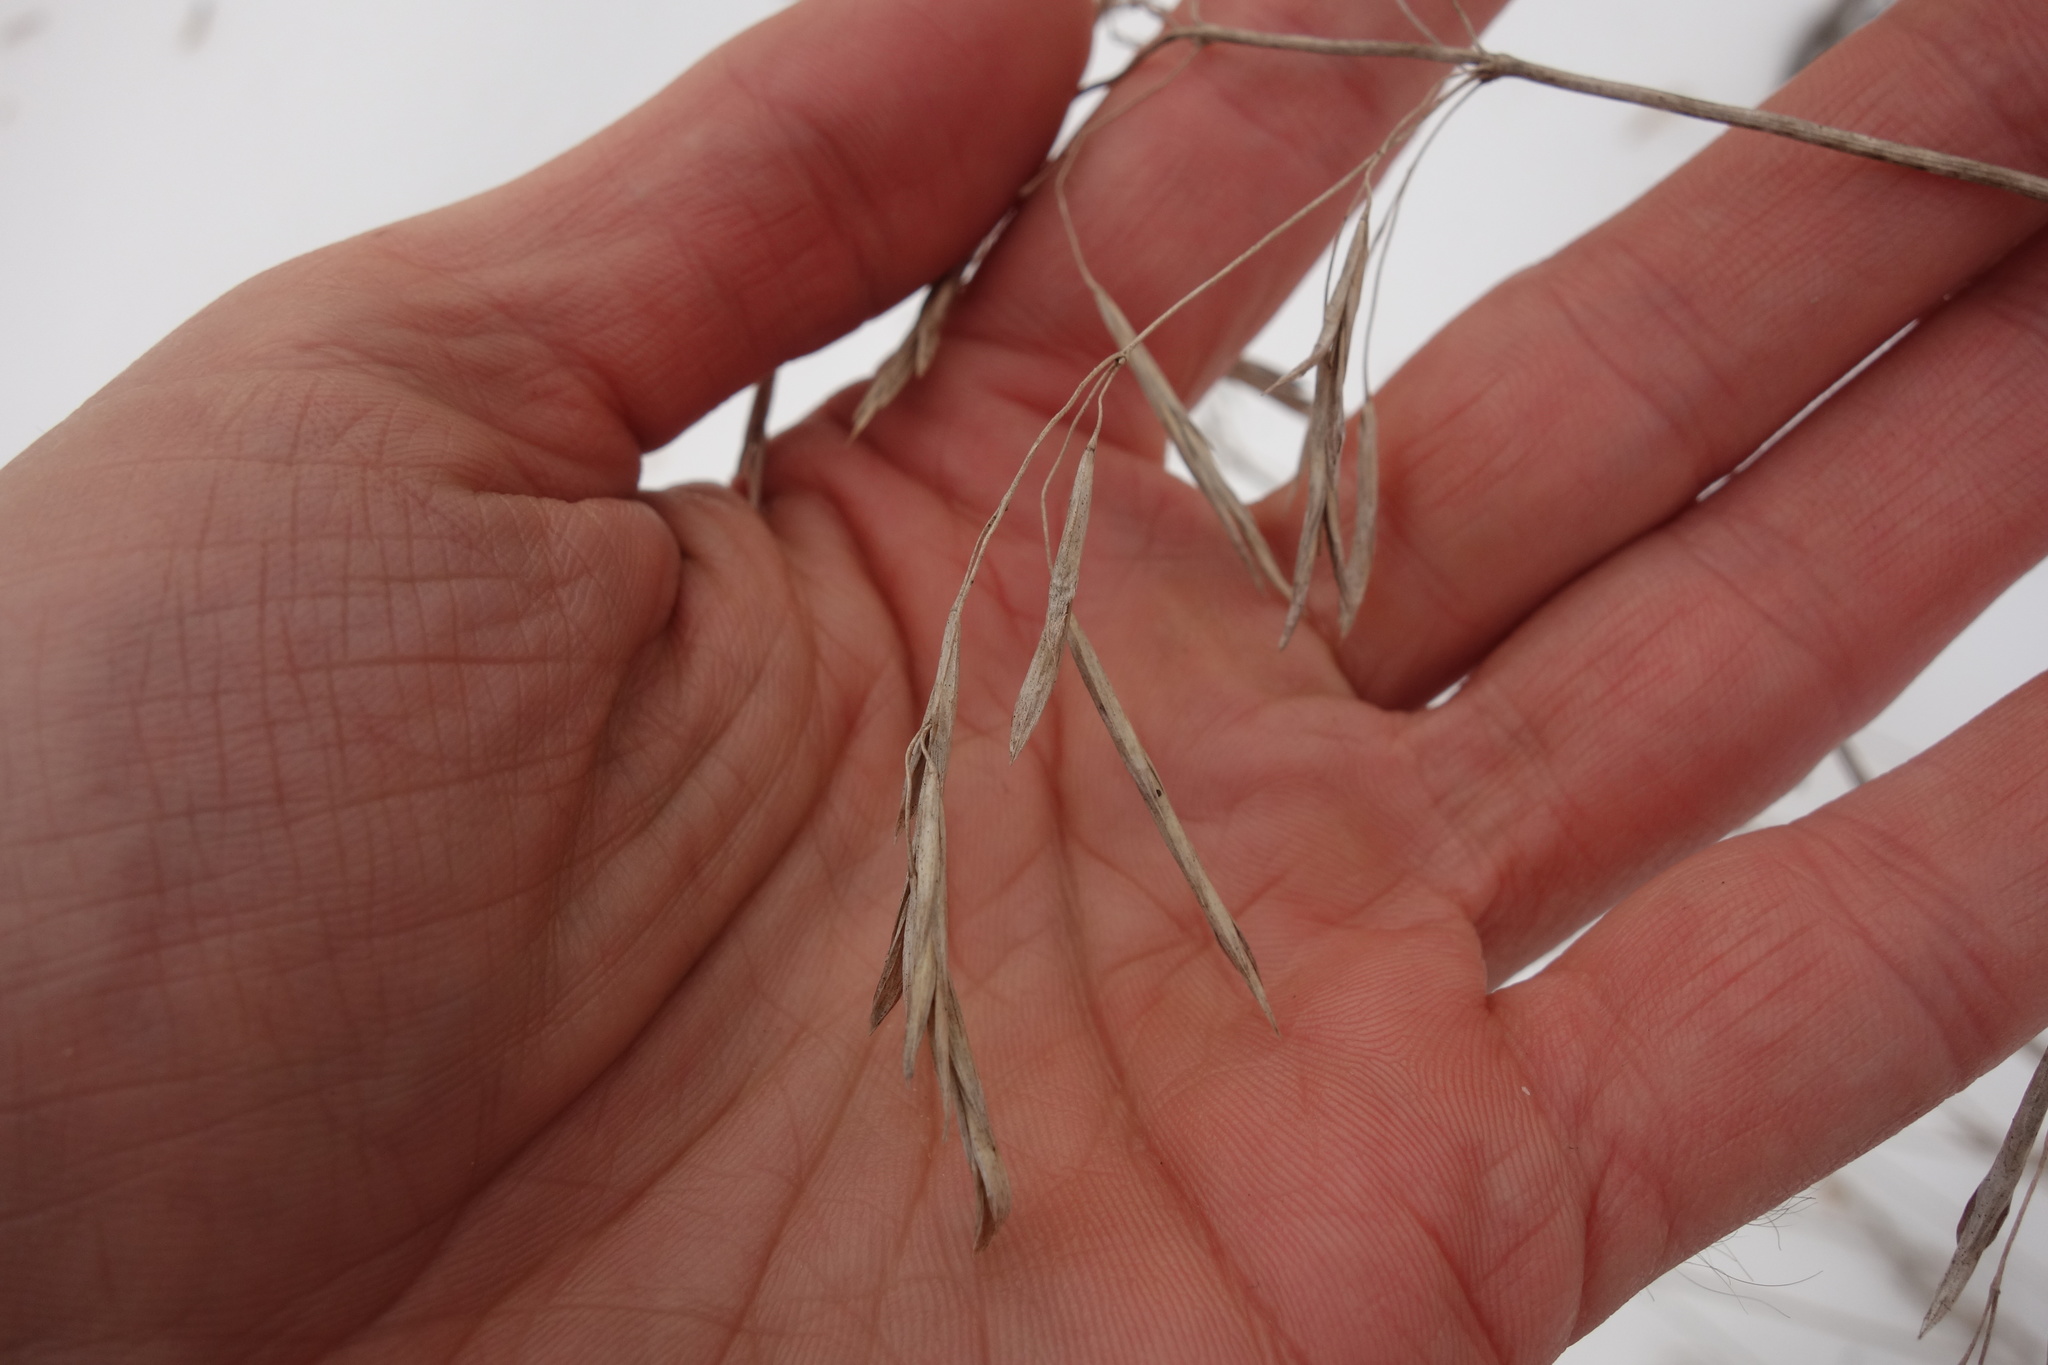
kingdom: Plantae
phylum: Tracheophyta
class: Liliopsida
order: Poales
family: Poaceae
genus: Bromus
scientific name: Bromus inermis
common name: Smooth brome
